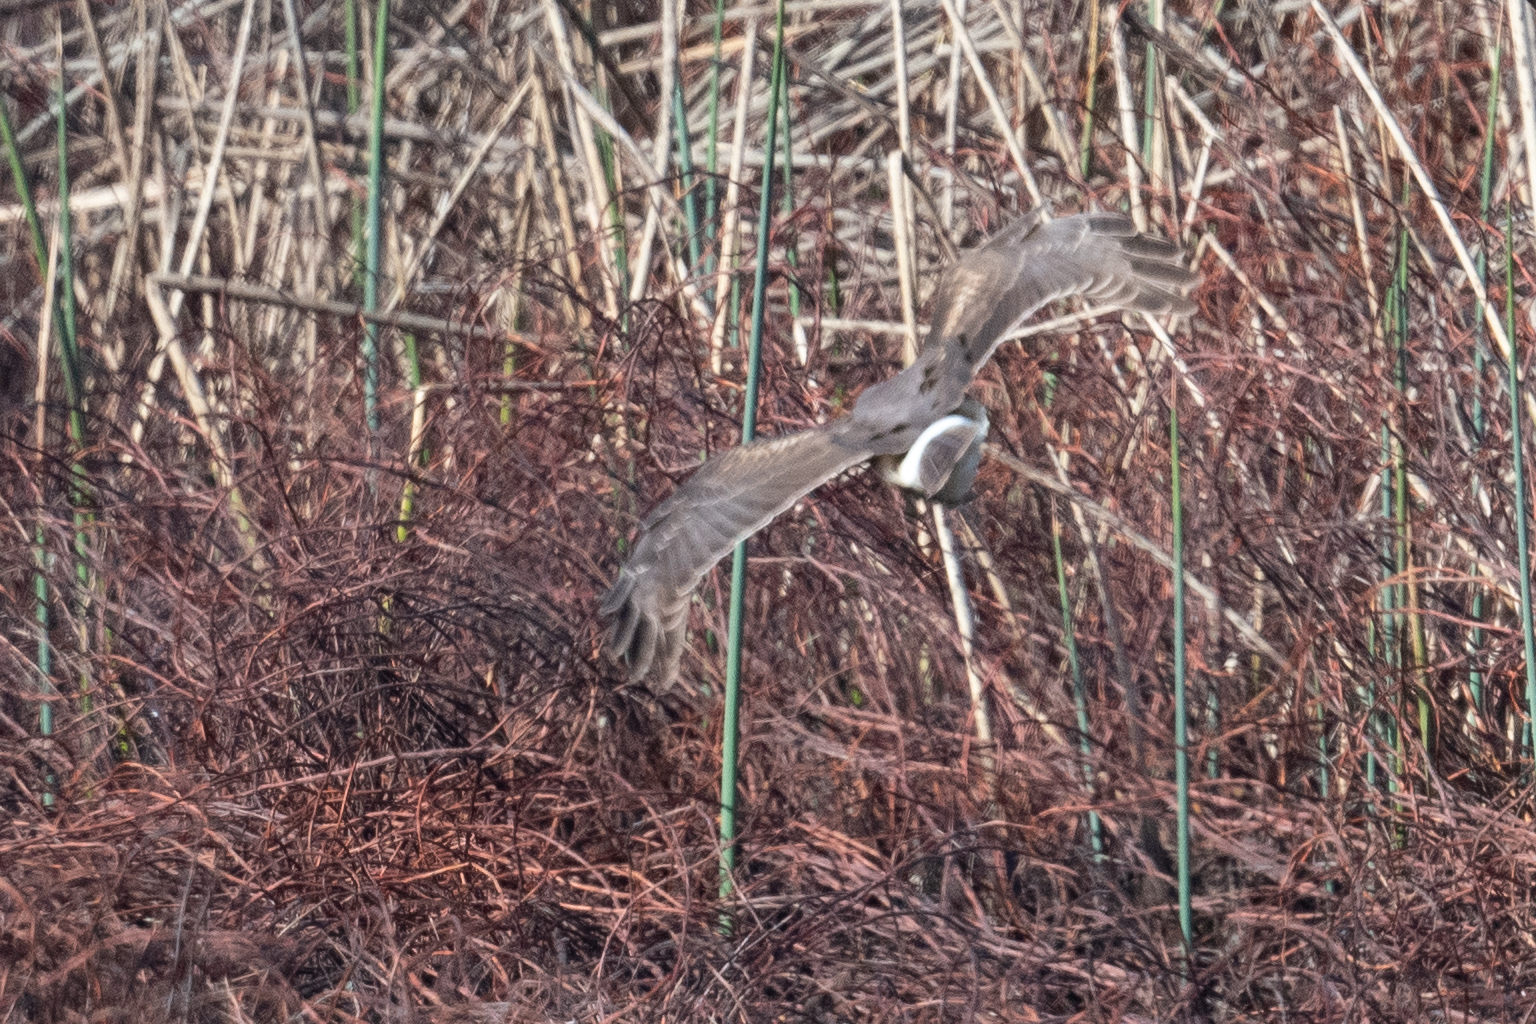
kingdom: Animalia
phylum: Chordata
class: Aves
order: Accipitriformes
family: Accipitridae
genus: Circus
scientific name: Circus cyaneus
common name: Hen harrier
